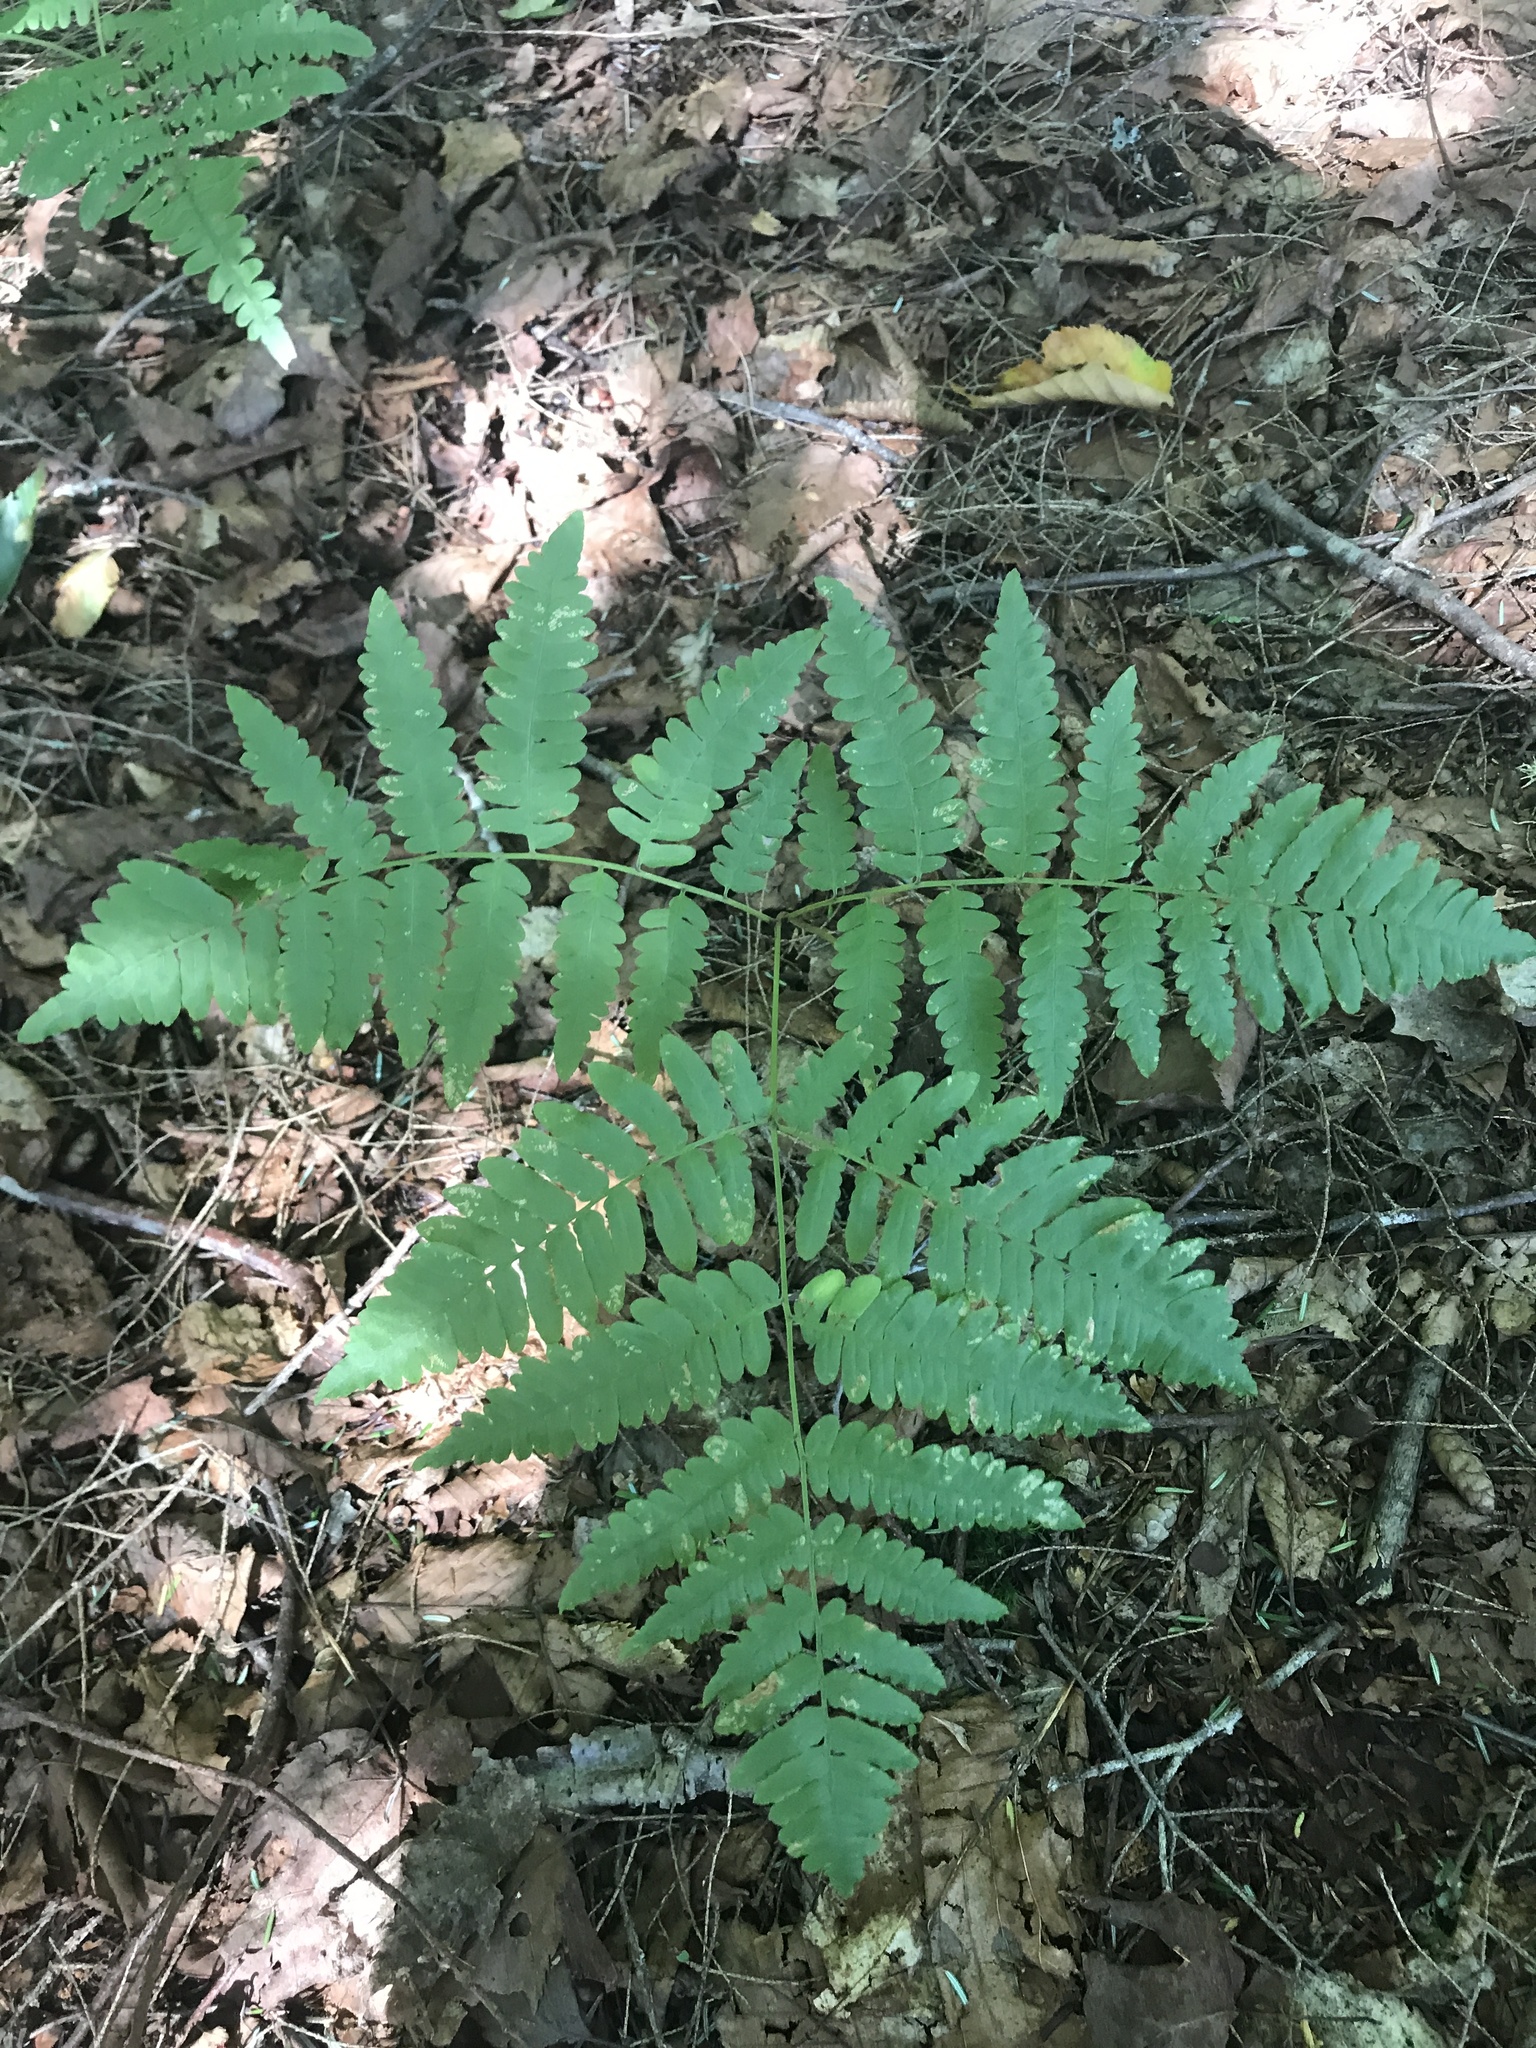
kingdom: Plantae
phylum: Tracheophyta
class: Polypodiopsida
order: Polypodiales
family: Dennstaedtiaceae
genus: Pteridium
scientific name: Pteridium aquilinum
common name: Bracken
